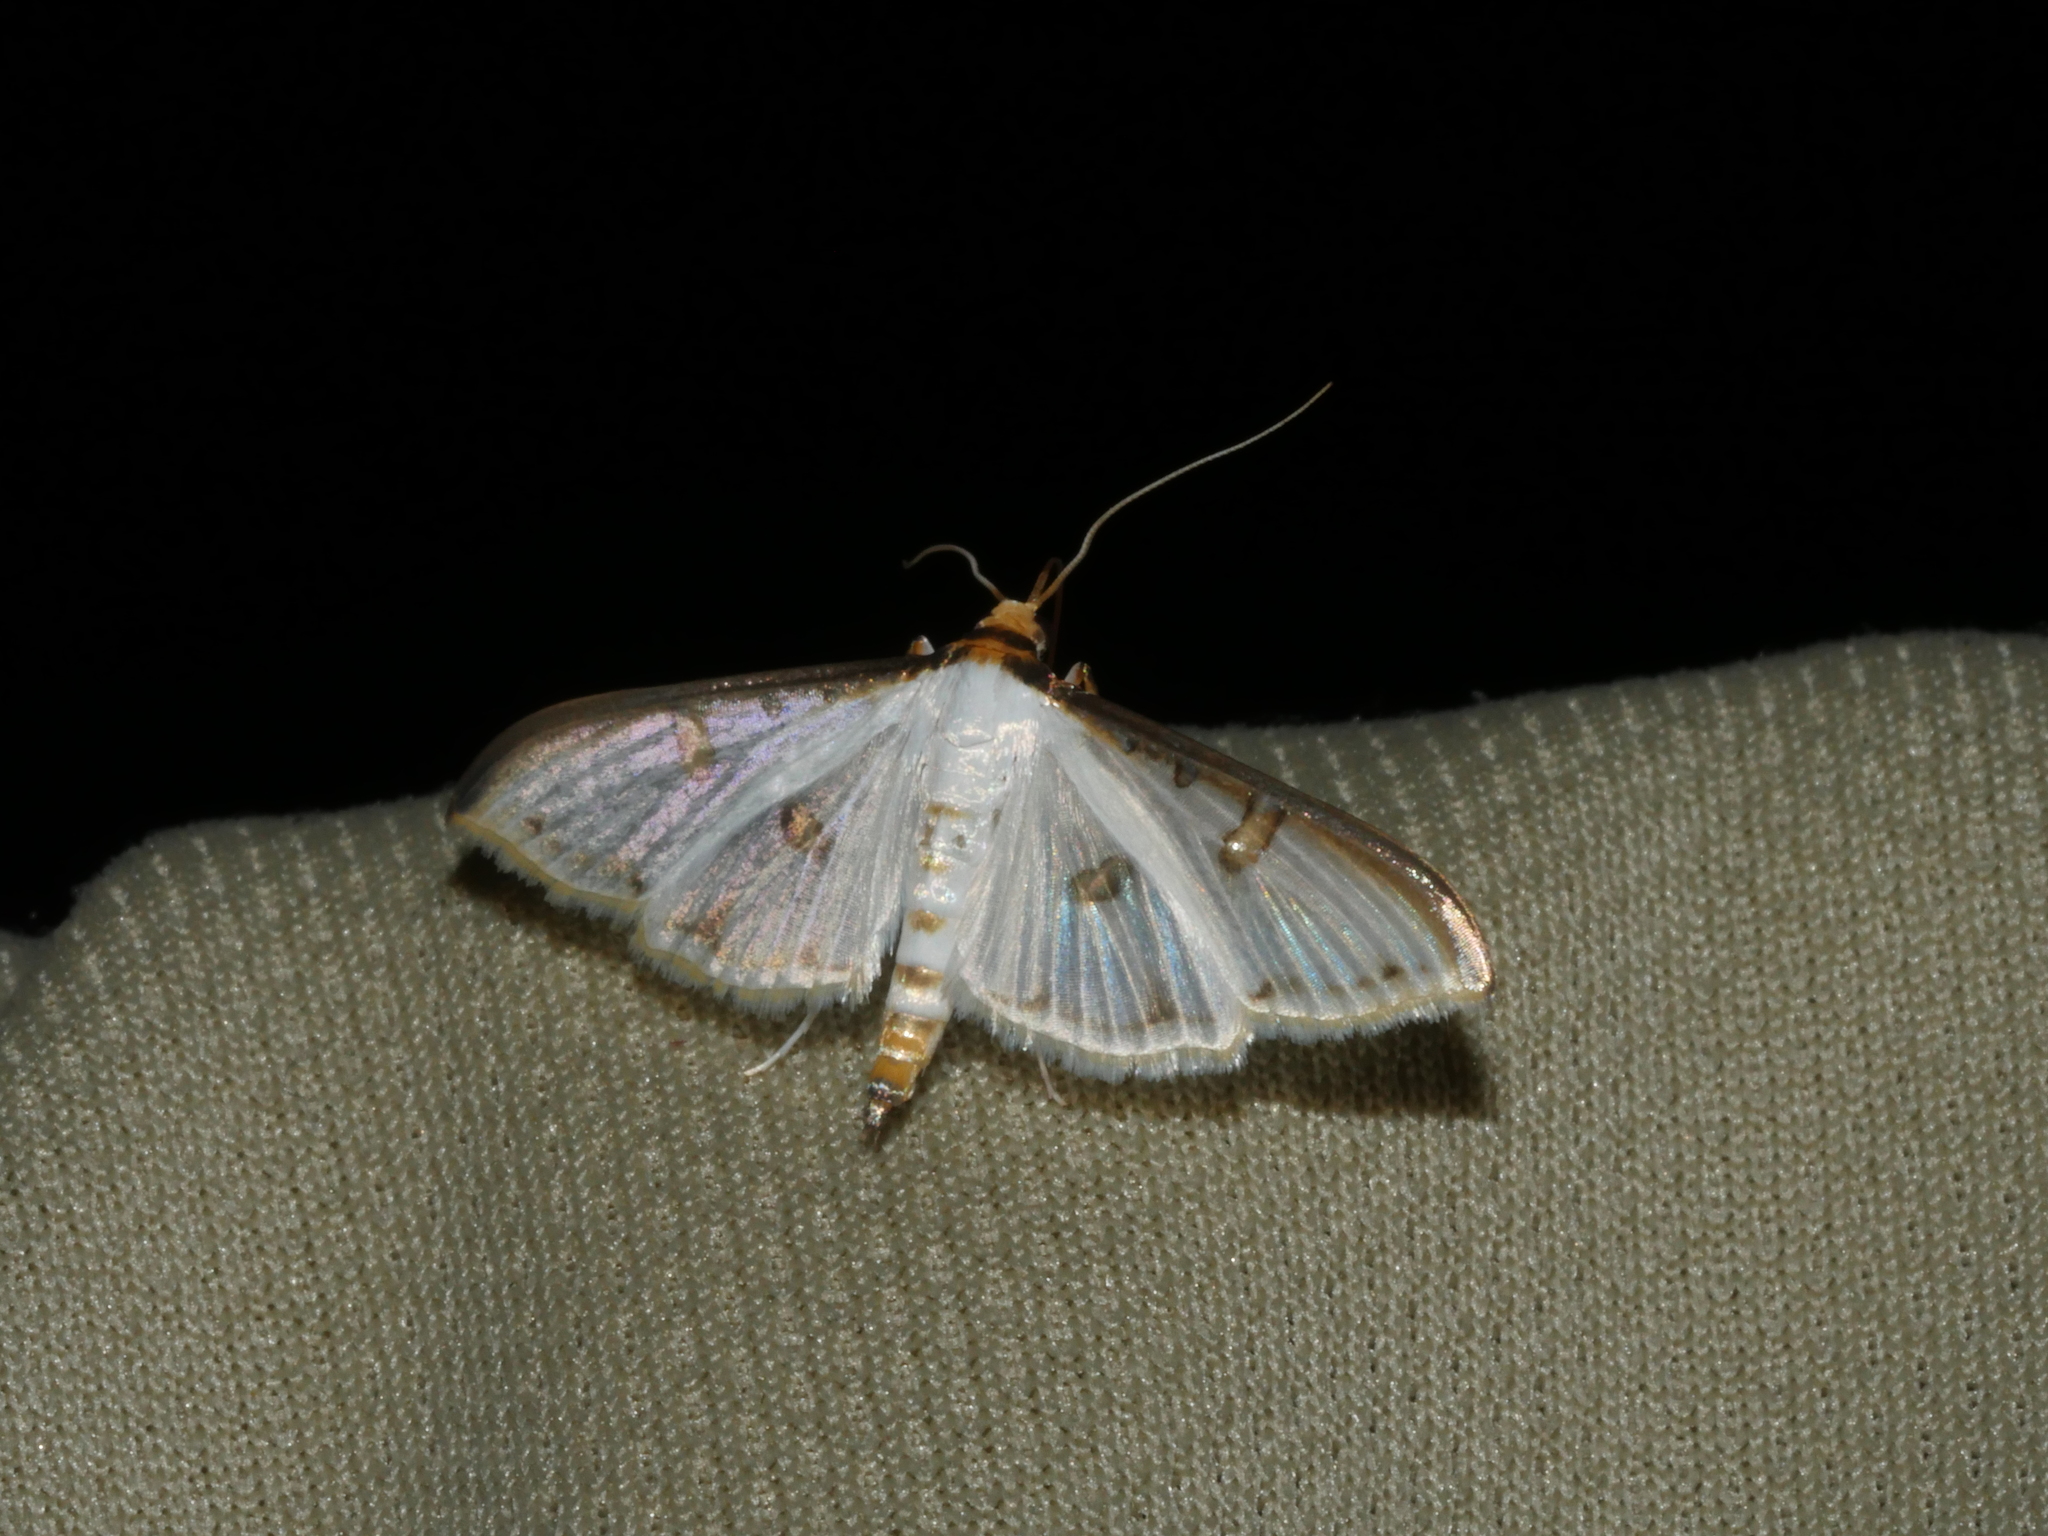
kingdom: Animalia
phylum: Arthropoda
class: Insecta
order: Lepidoptera
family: Crambidae
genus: Palpita
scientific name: Palpita metallata
